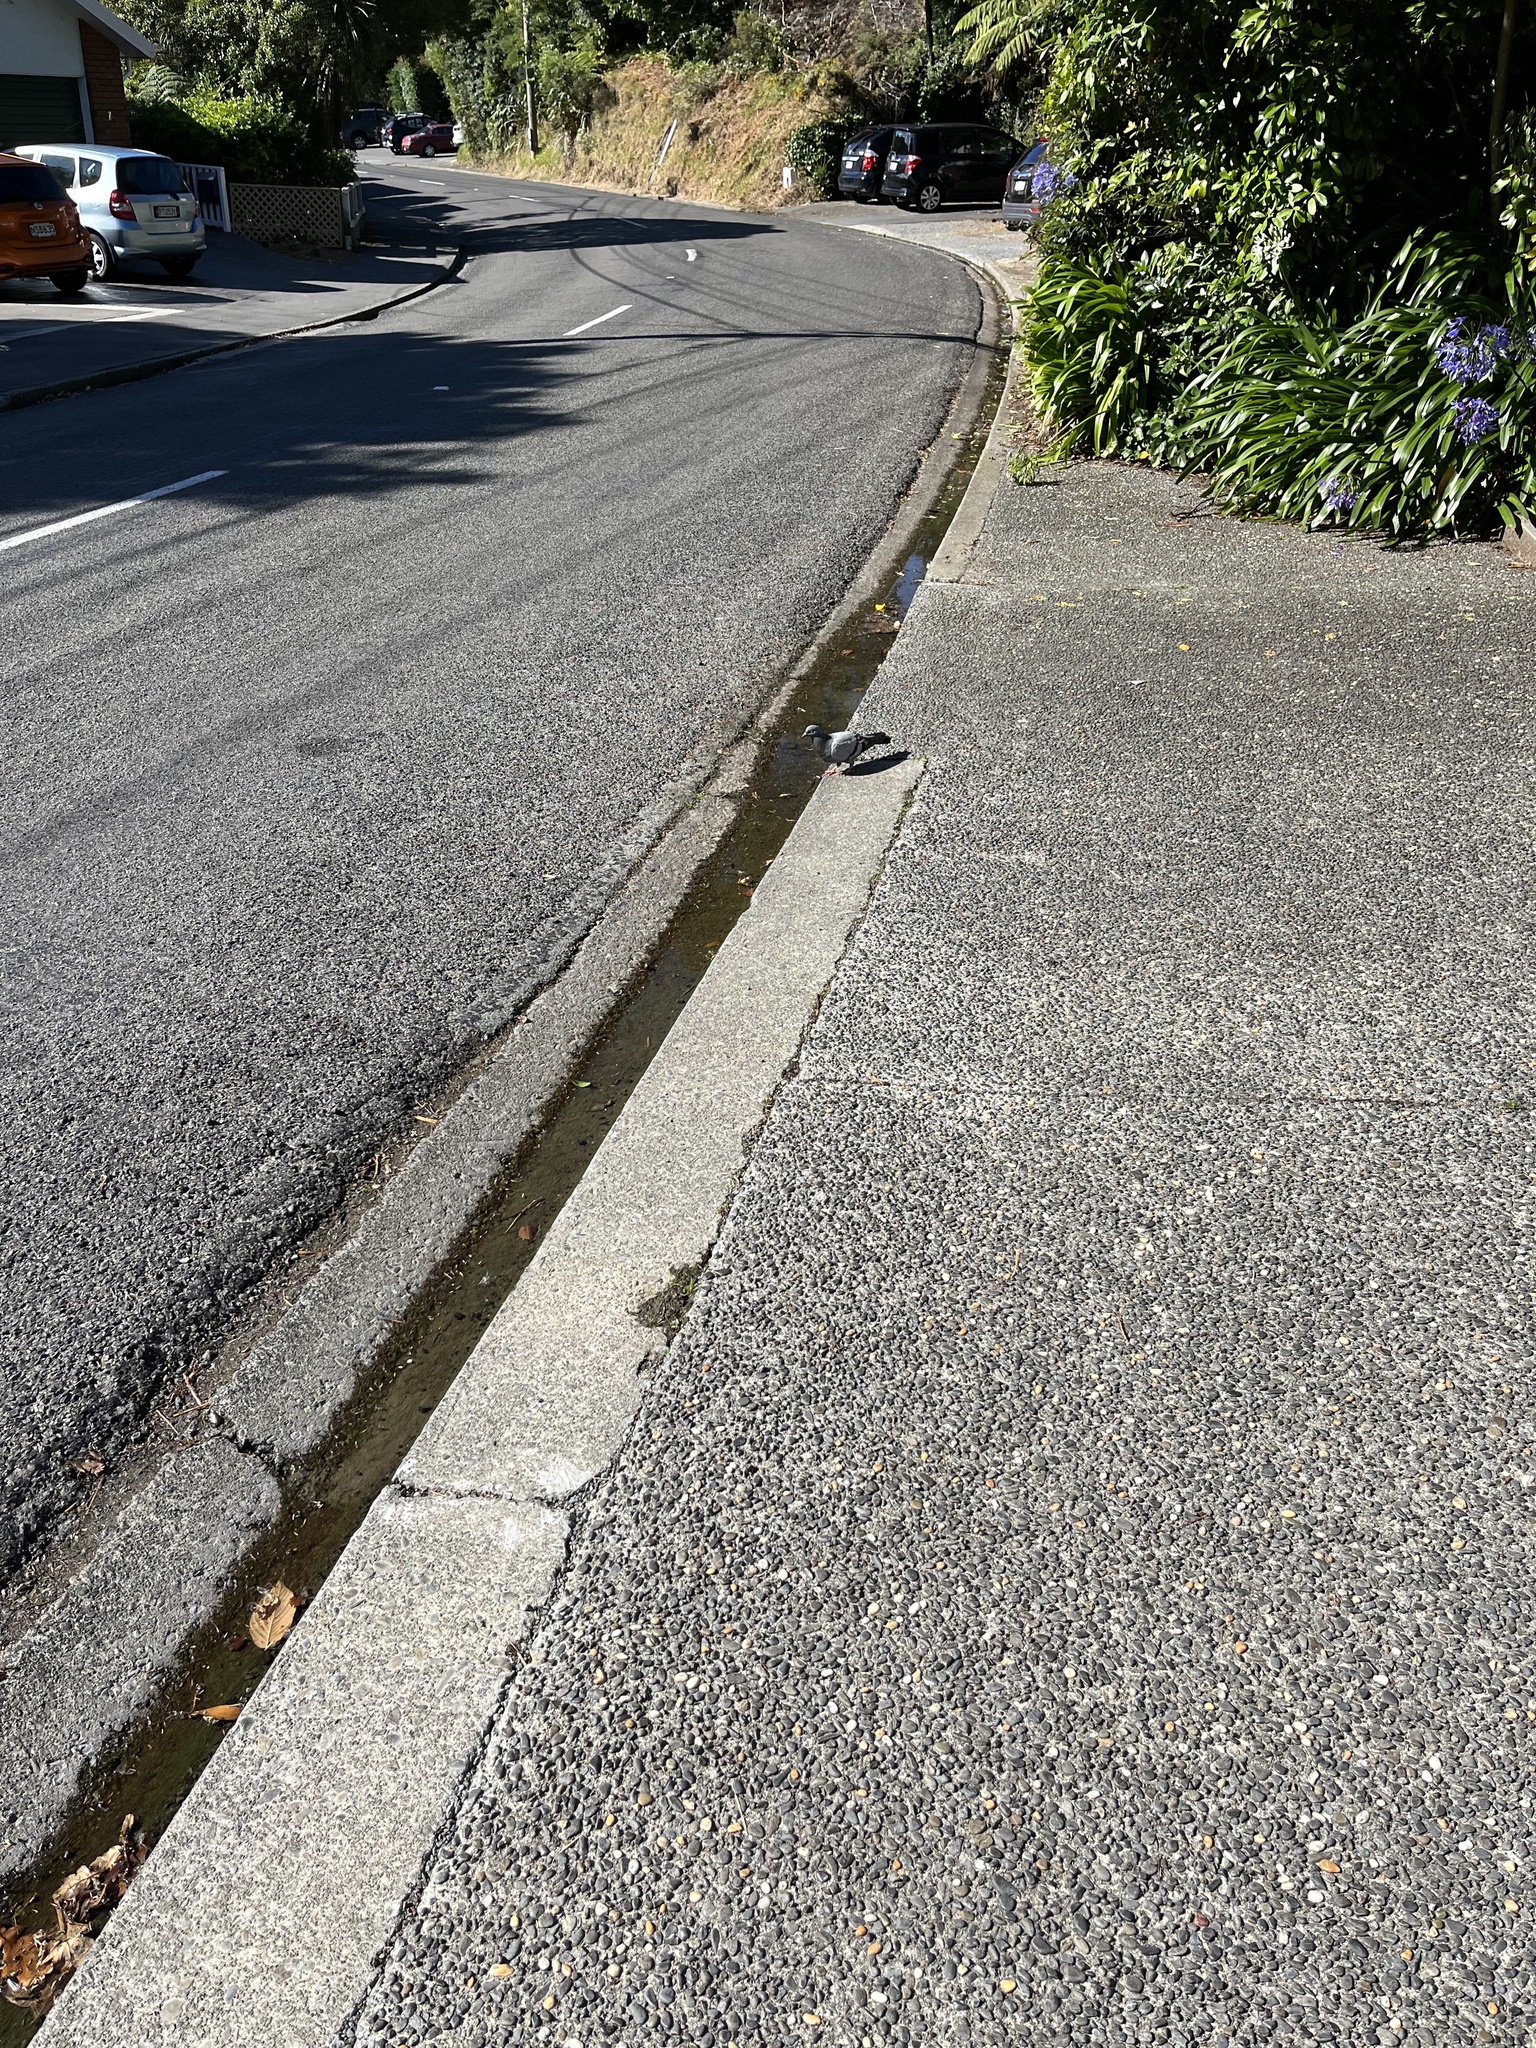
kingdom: Animalia
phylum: Chordata
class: Aves
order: Columbiformes
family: Columbidae
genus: Columba
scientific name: Columba livia
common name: Rock pigeon
